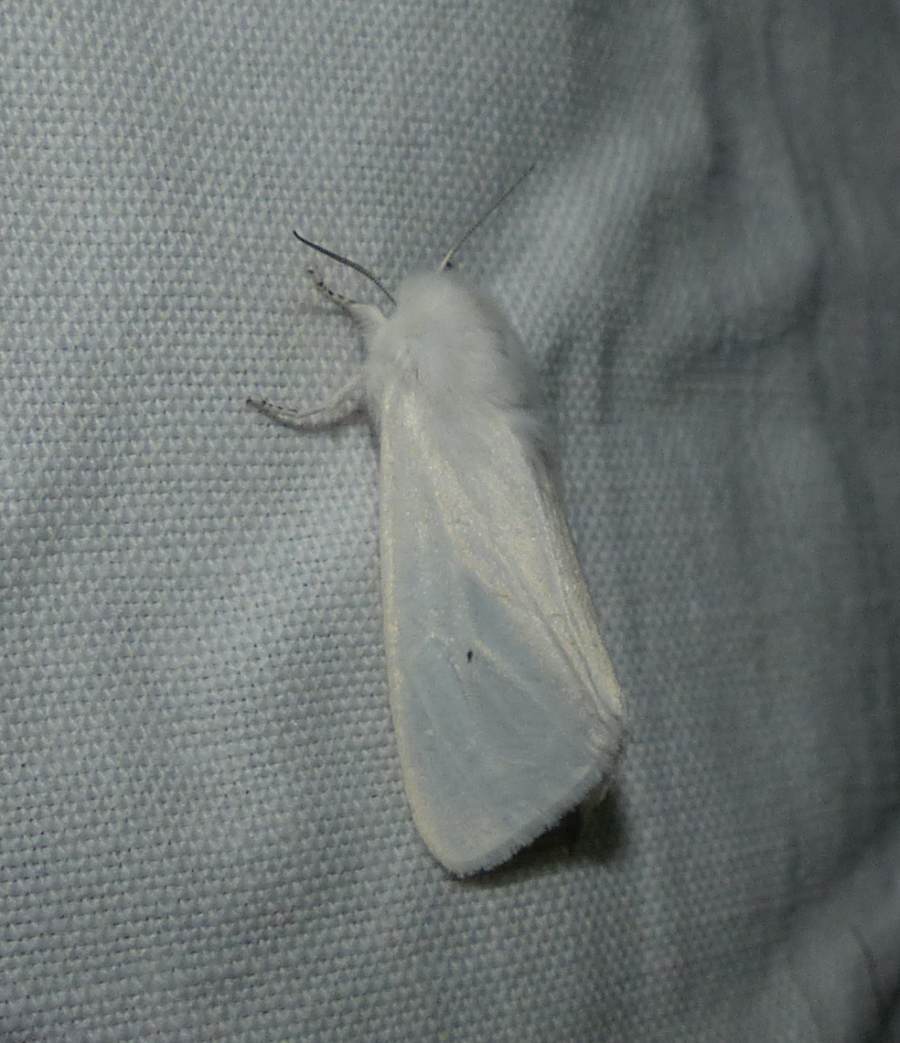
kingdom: Animalia
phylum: Arthropoda
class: Insecta
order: Lepidoptera
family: Erebidae
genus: Spilosoma
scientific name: Spilosoma virginica
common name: Virginia tiger moth
